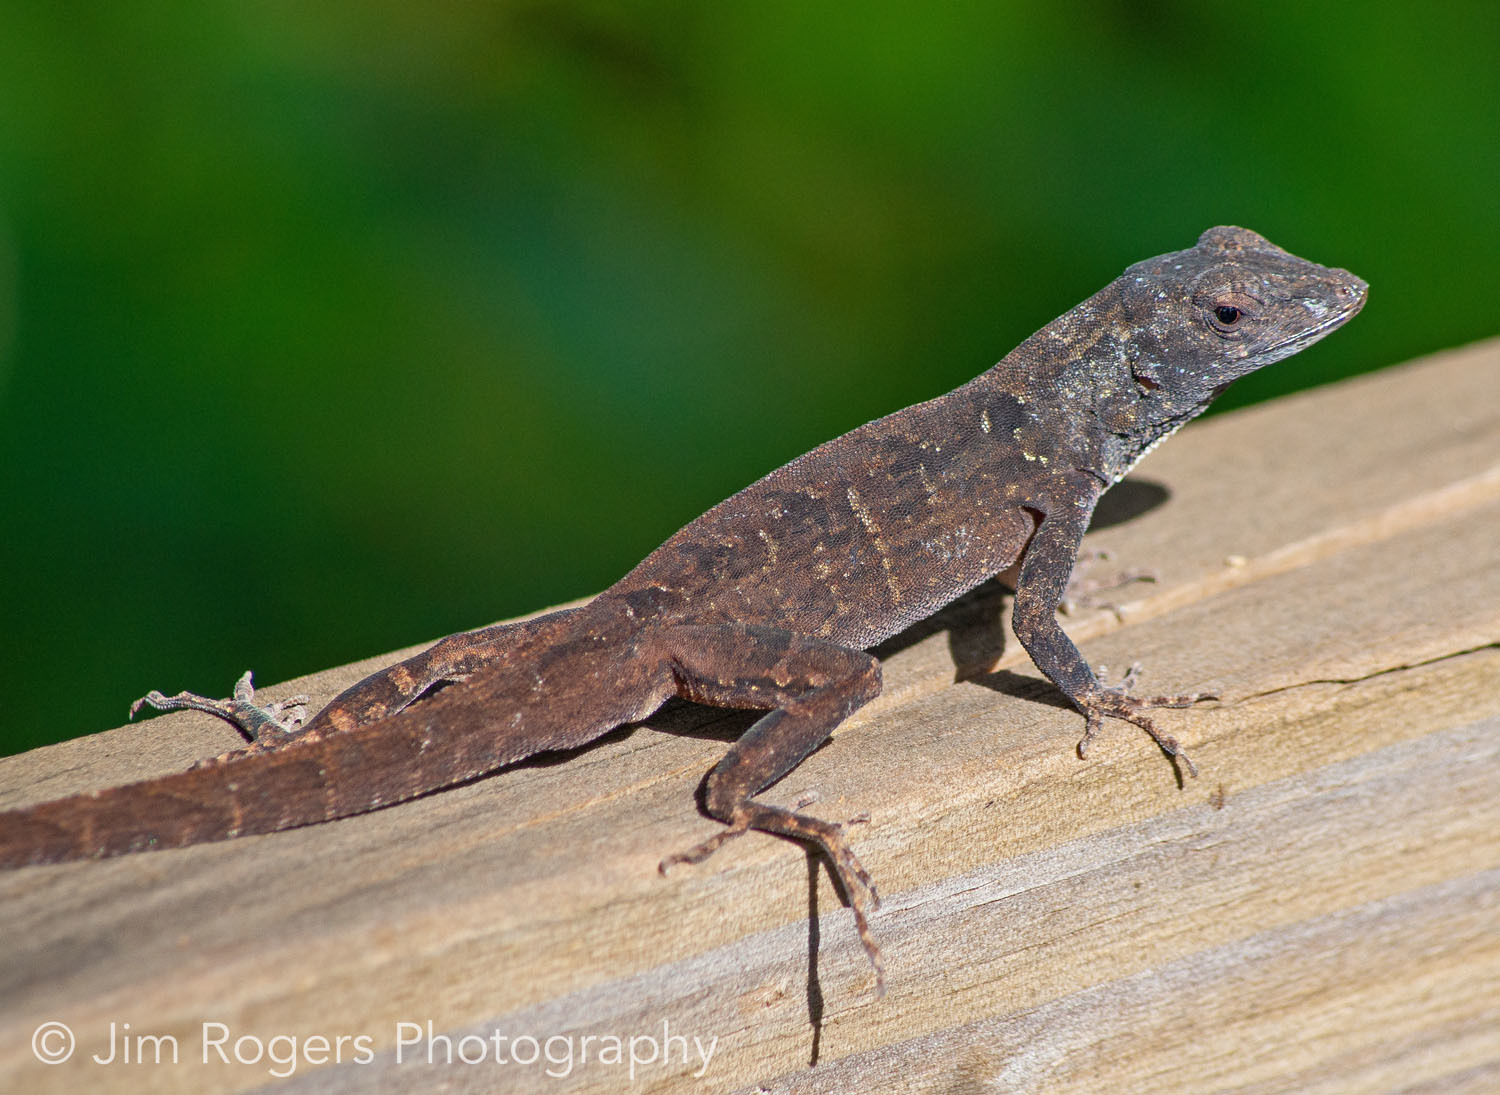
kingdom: Animalia
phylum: Chordata
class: Squamata
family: Dactyloidae
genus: Anolis
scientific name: Anolis sagrei
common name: Brown anole
